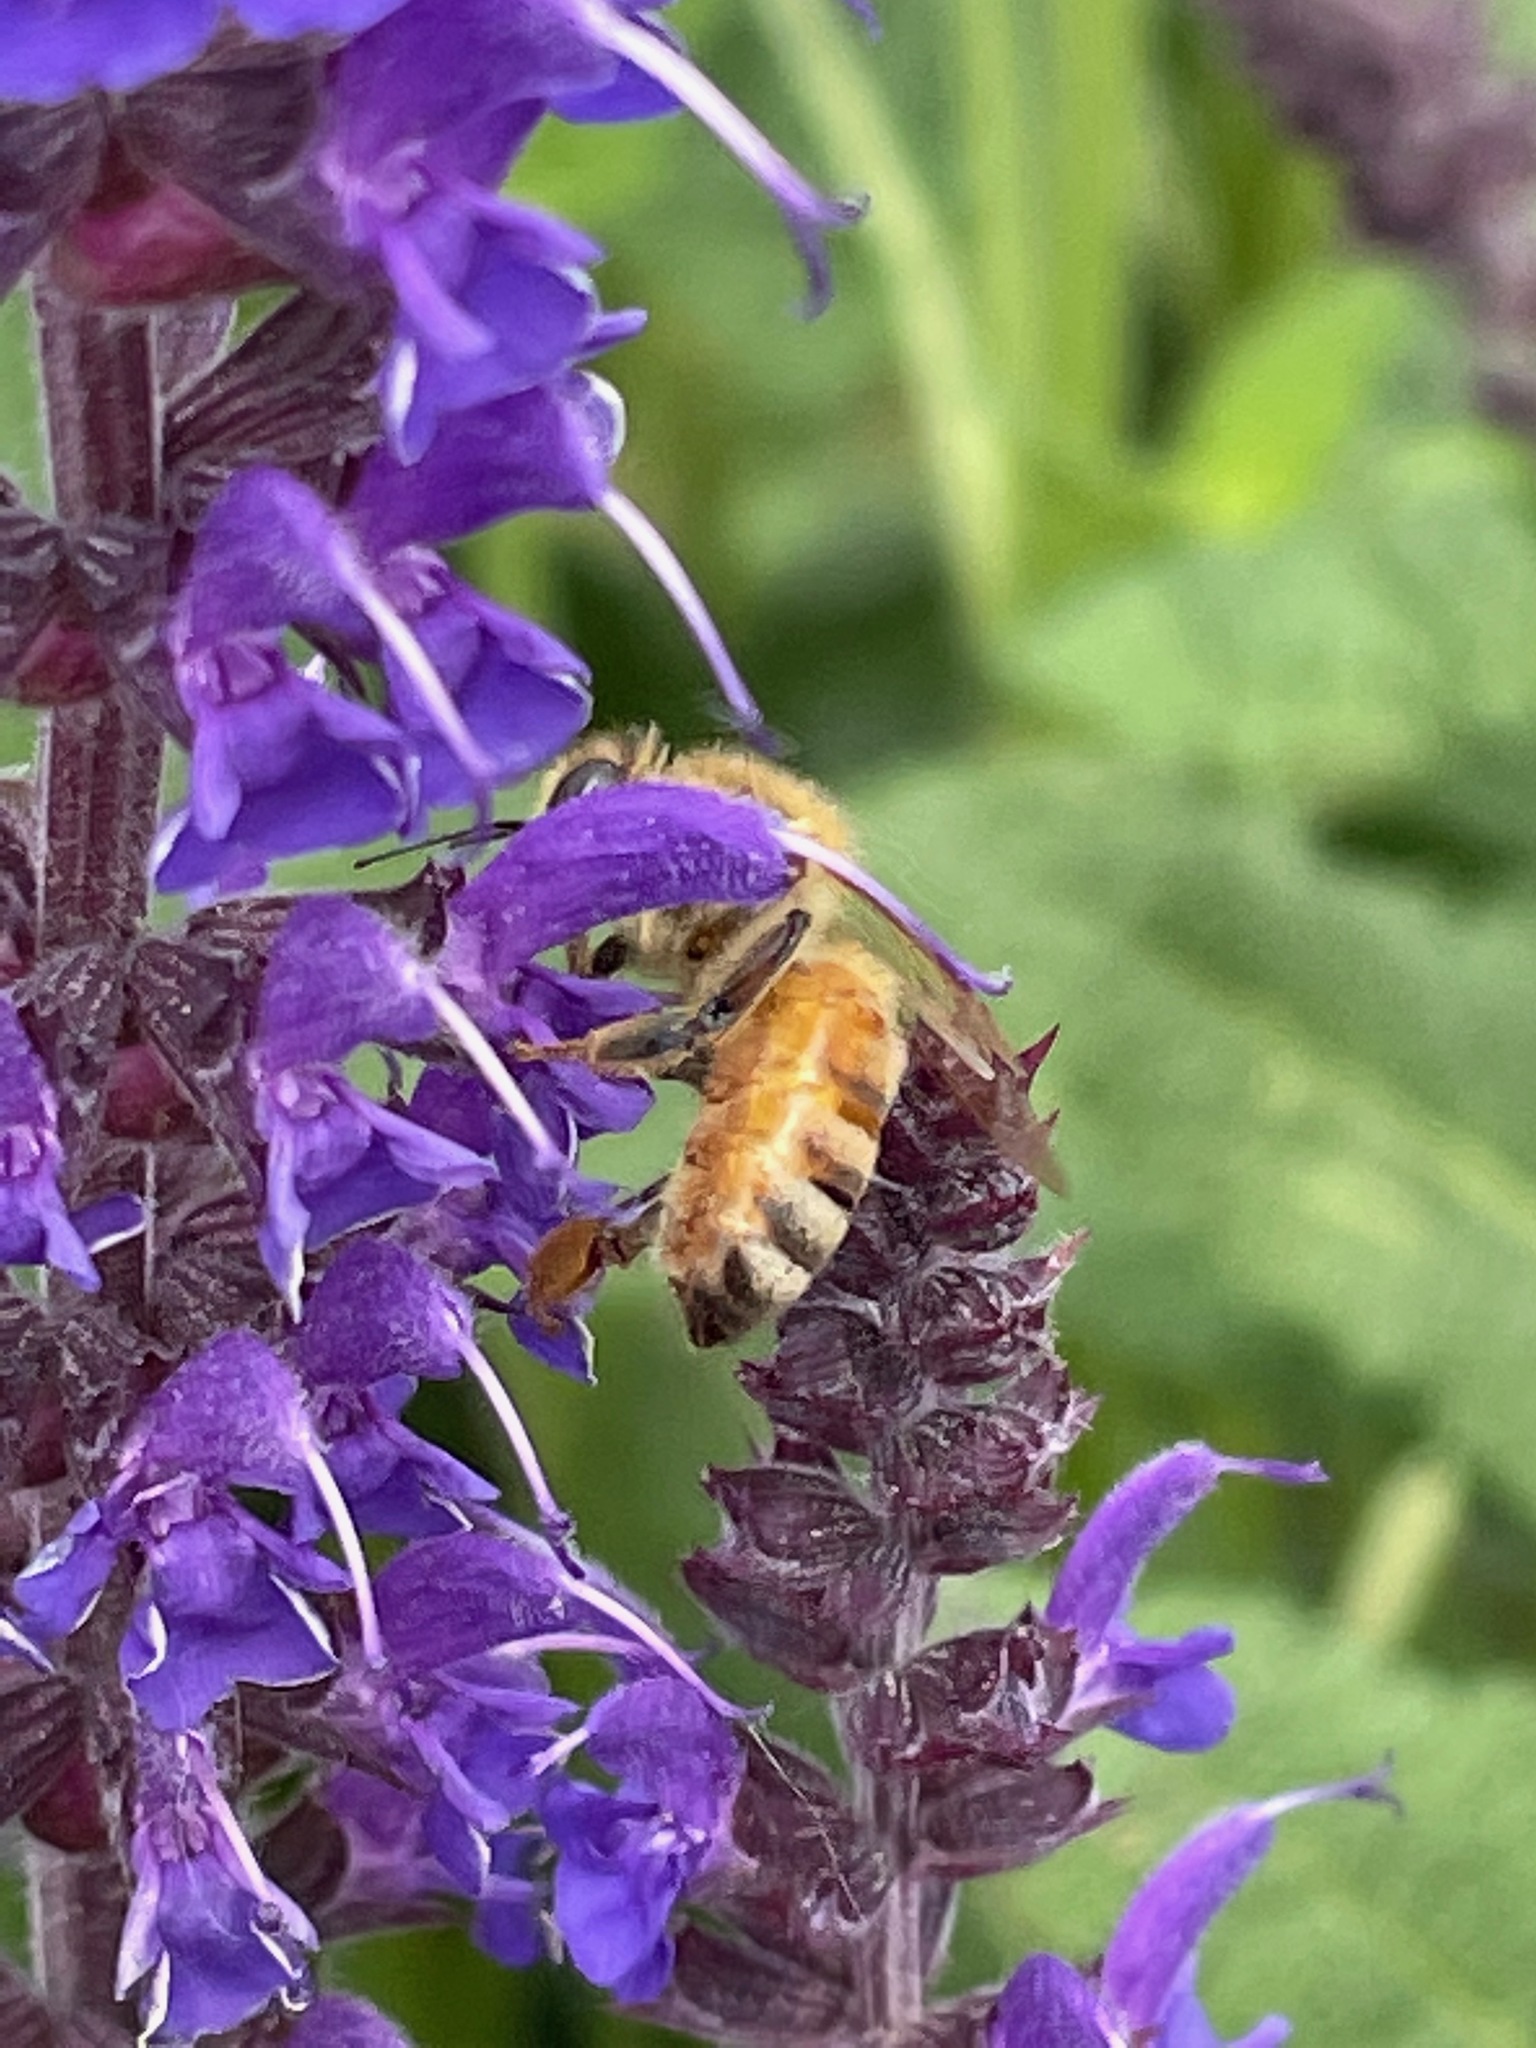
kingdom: Animalia
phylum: Arthropoda
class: Insecta
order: Hymenoptera
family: Apidae
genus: Apis
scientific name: Apis mellifera
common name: Honey bee
